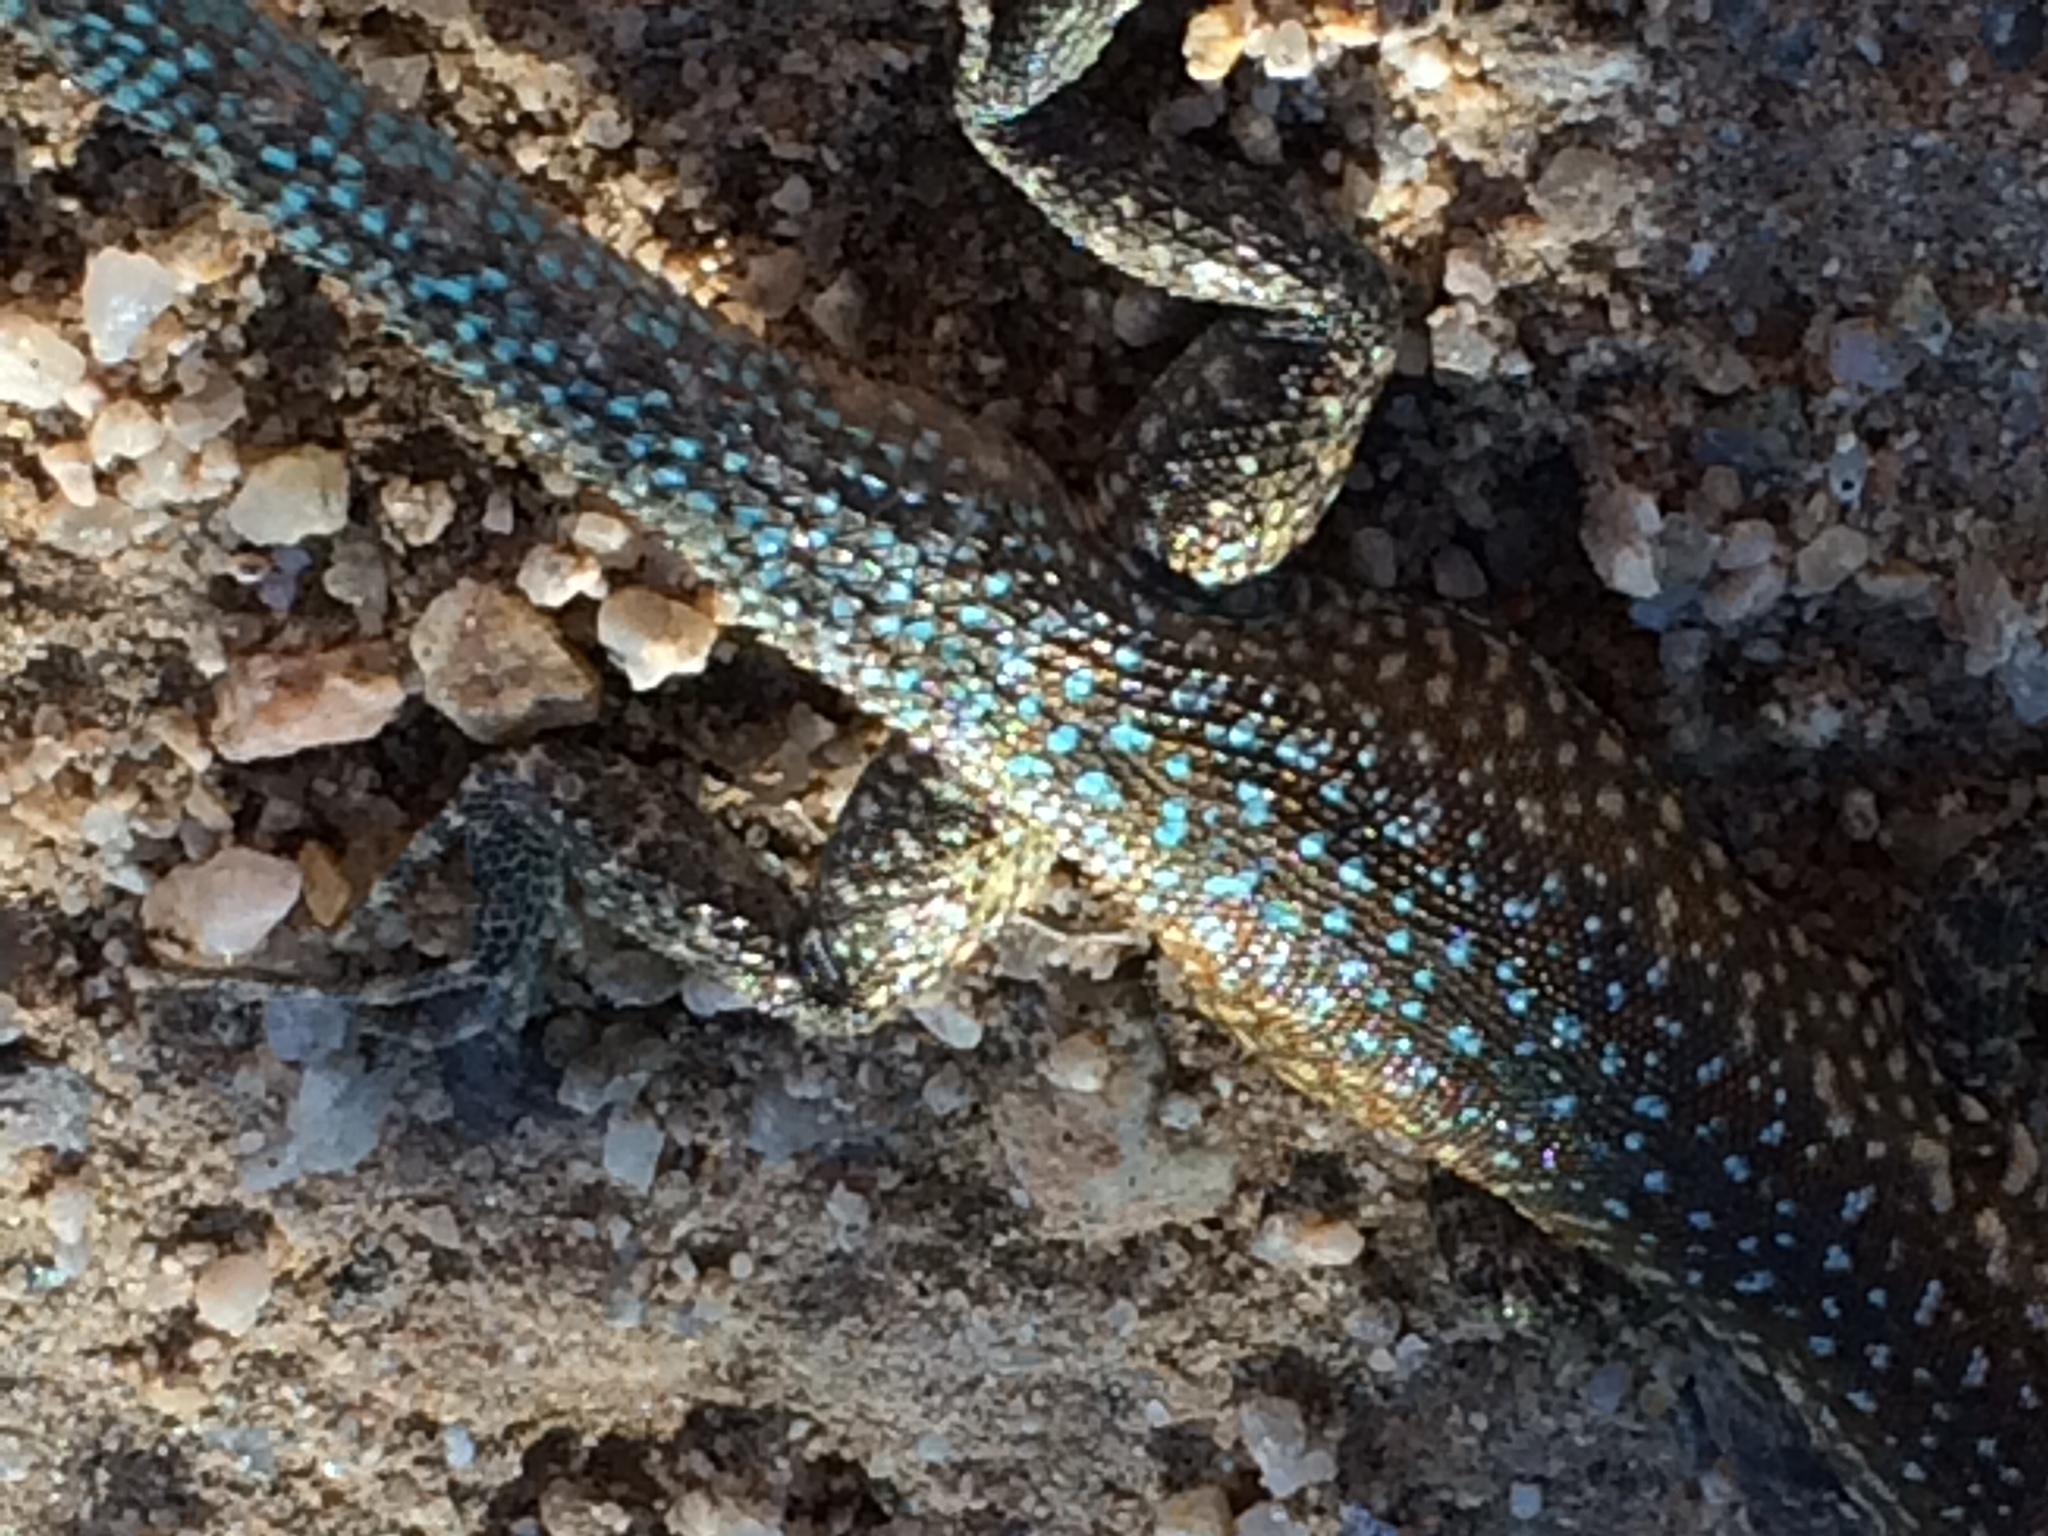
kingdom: Animalia
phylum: Chordata
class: Squamata
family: Phrynosomatidae
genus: Uta
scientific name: Uta stansburiana
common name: Side-blotched lizard
